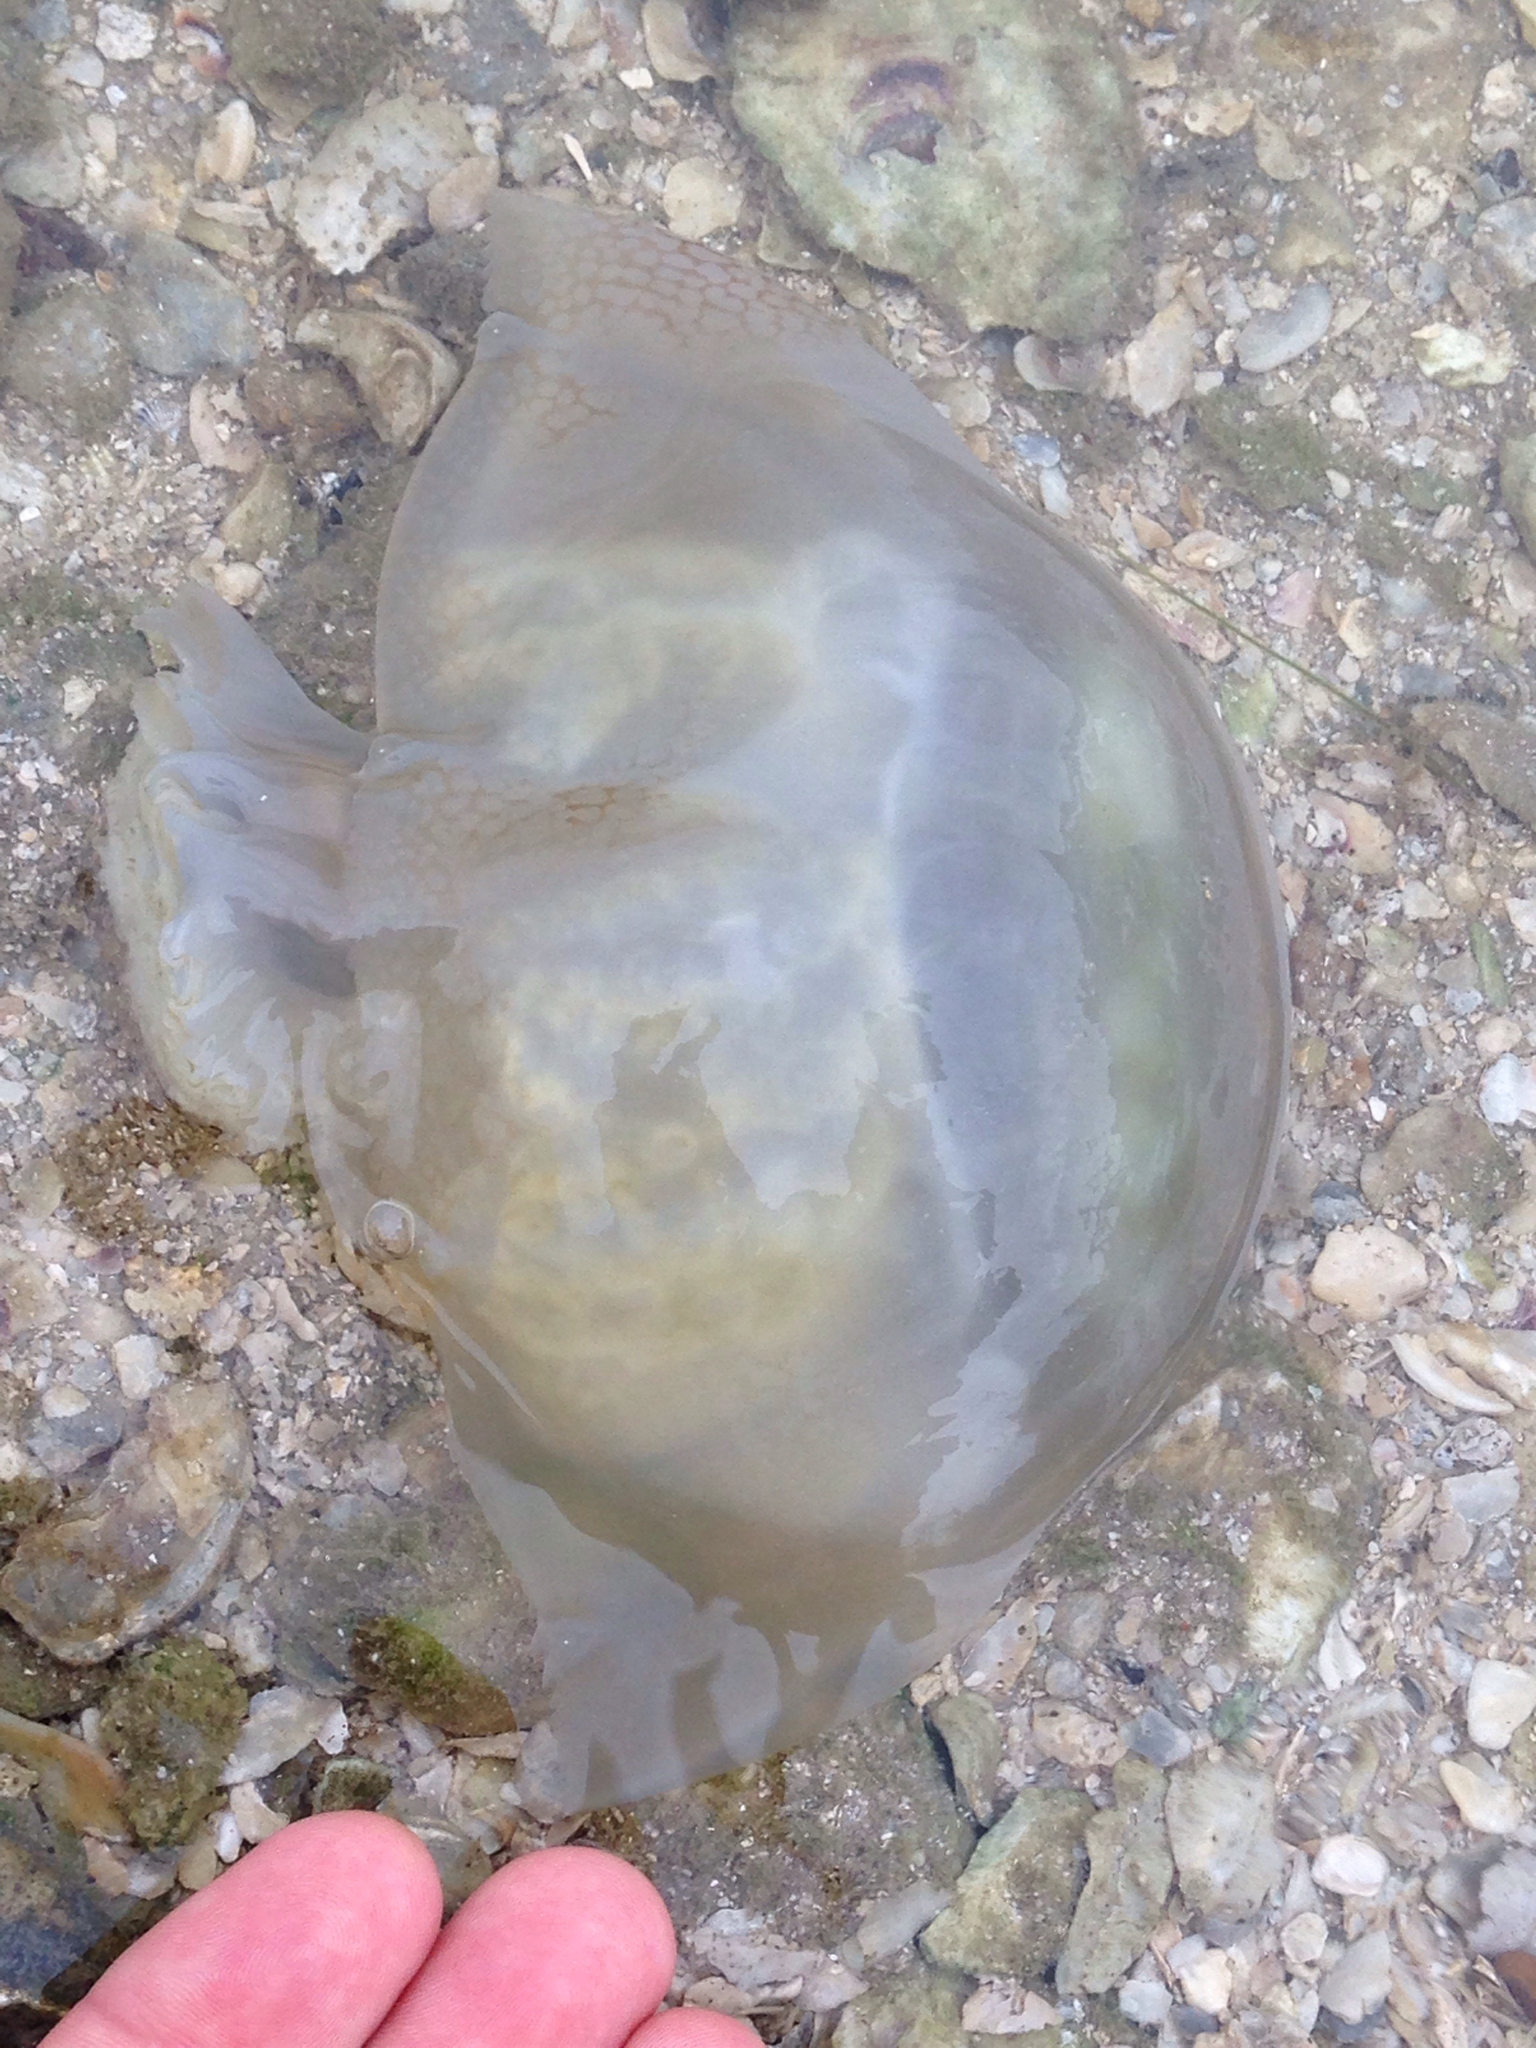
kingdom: Animalia
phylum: Cnidaria
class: Scyphozoa
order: Rhizostomeae
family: Stomolophidae
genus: Stomolophus
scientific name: Stomolophus meleagris
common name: Cabbagehead
